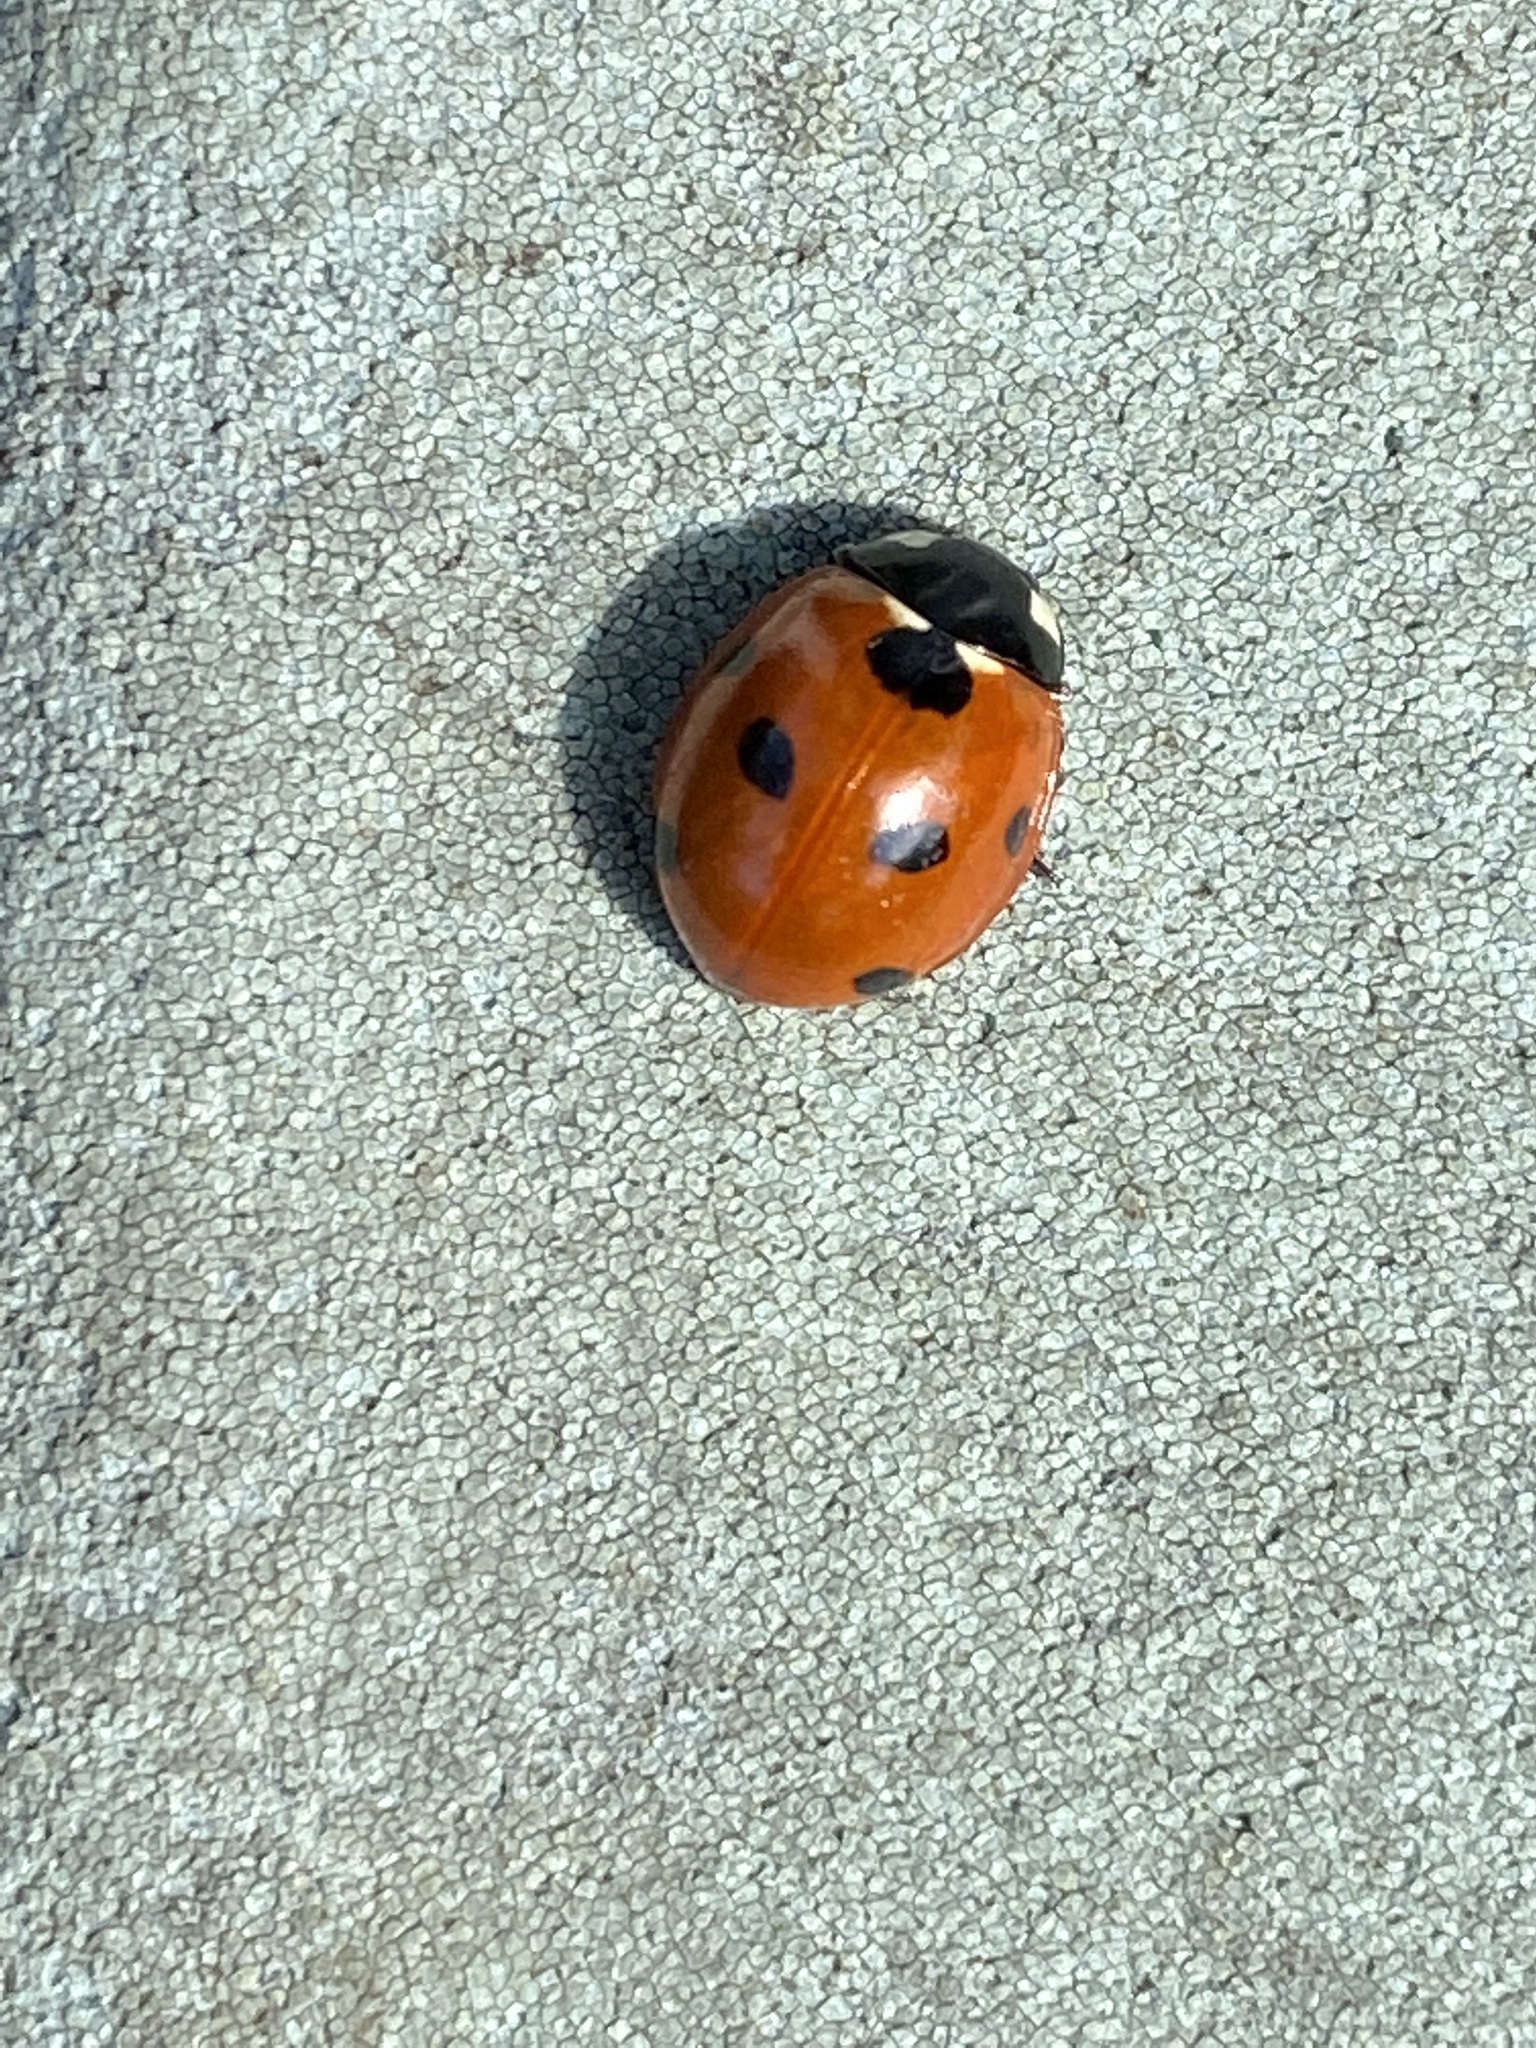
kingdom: Animalia
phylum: Arthropoda
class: Insecta
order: Coleoptera
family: Coccinellidae
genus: Coccinella
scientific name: Coccinella septempunctata
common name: Sevenspotted lady beetle
